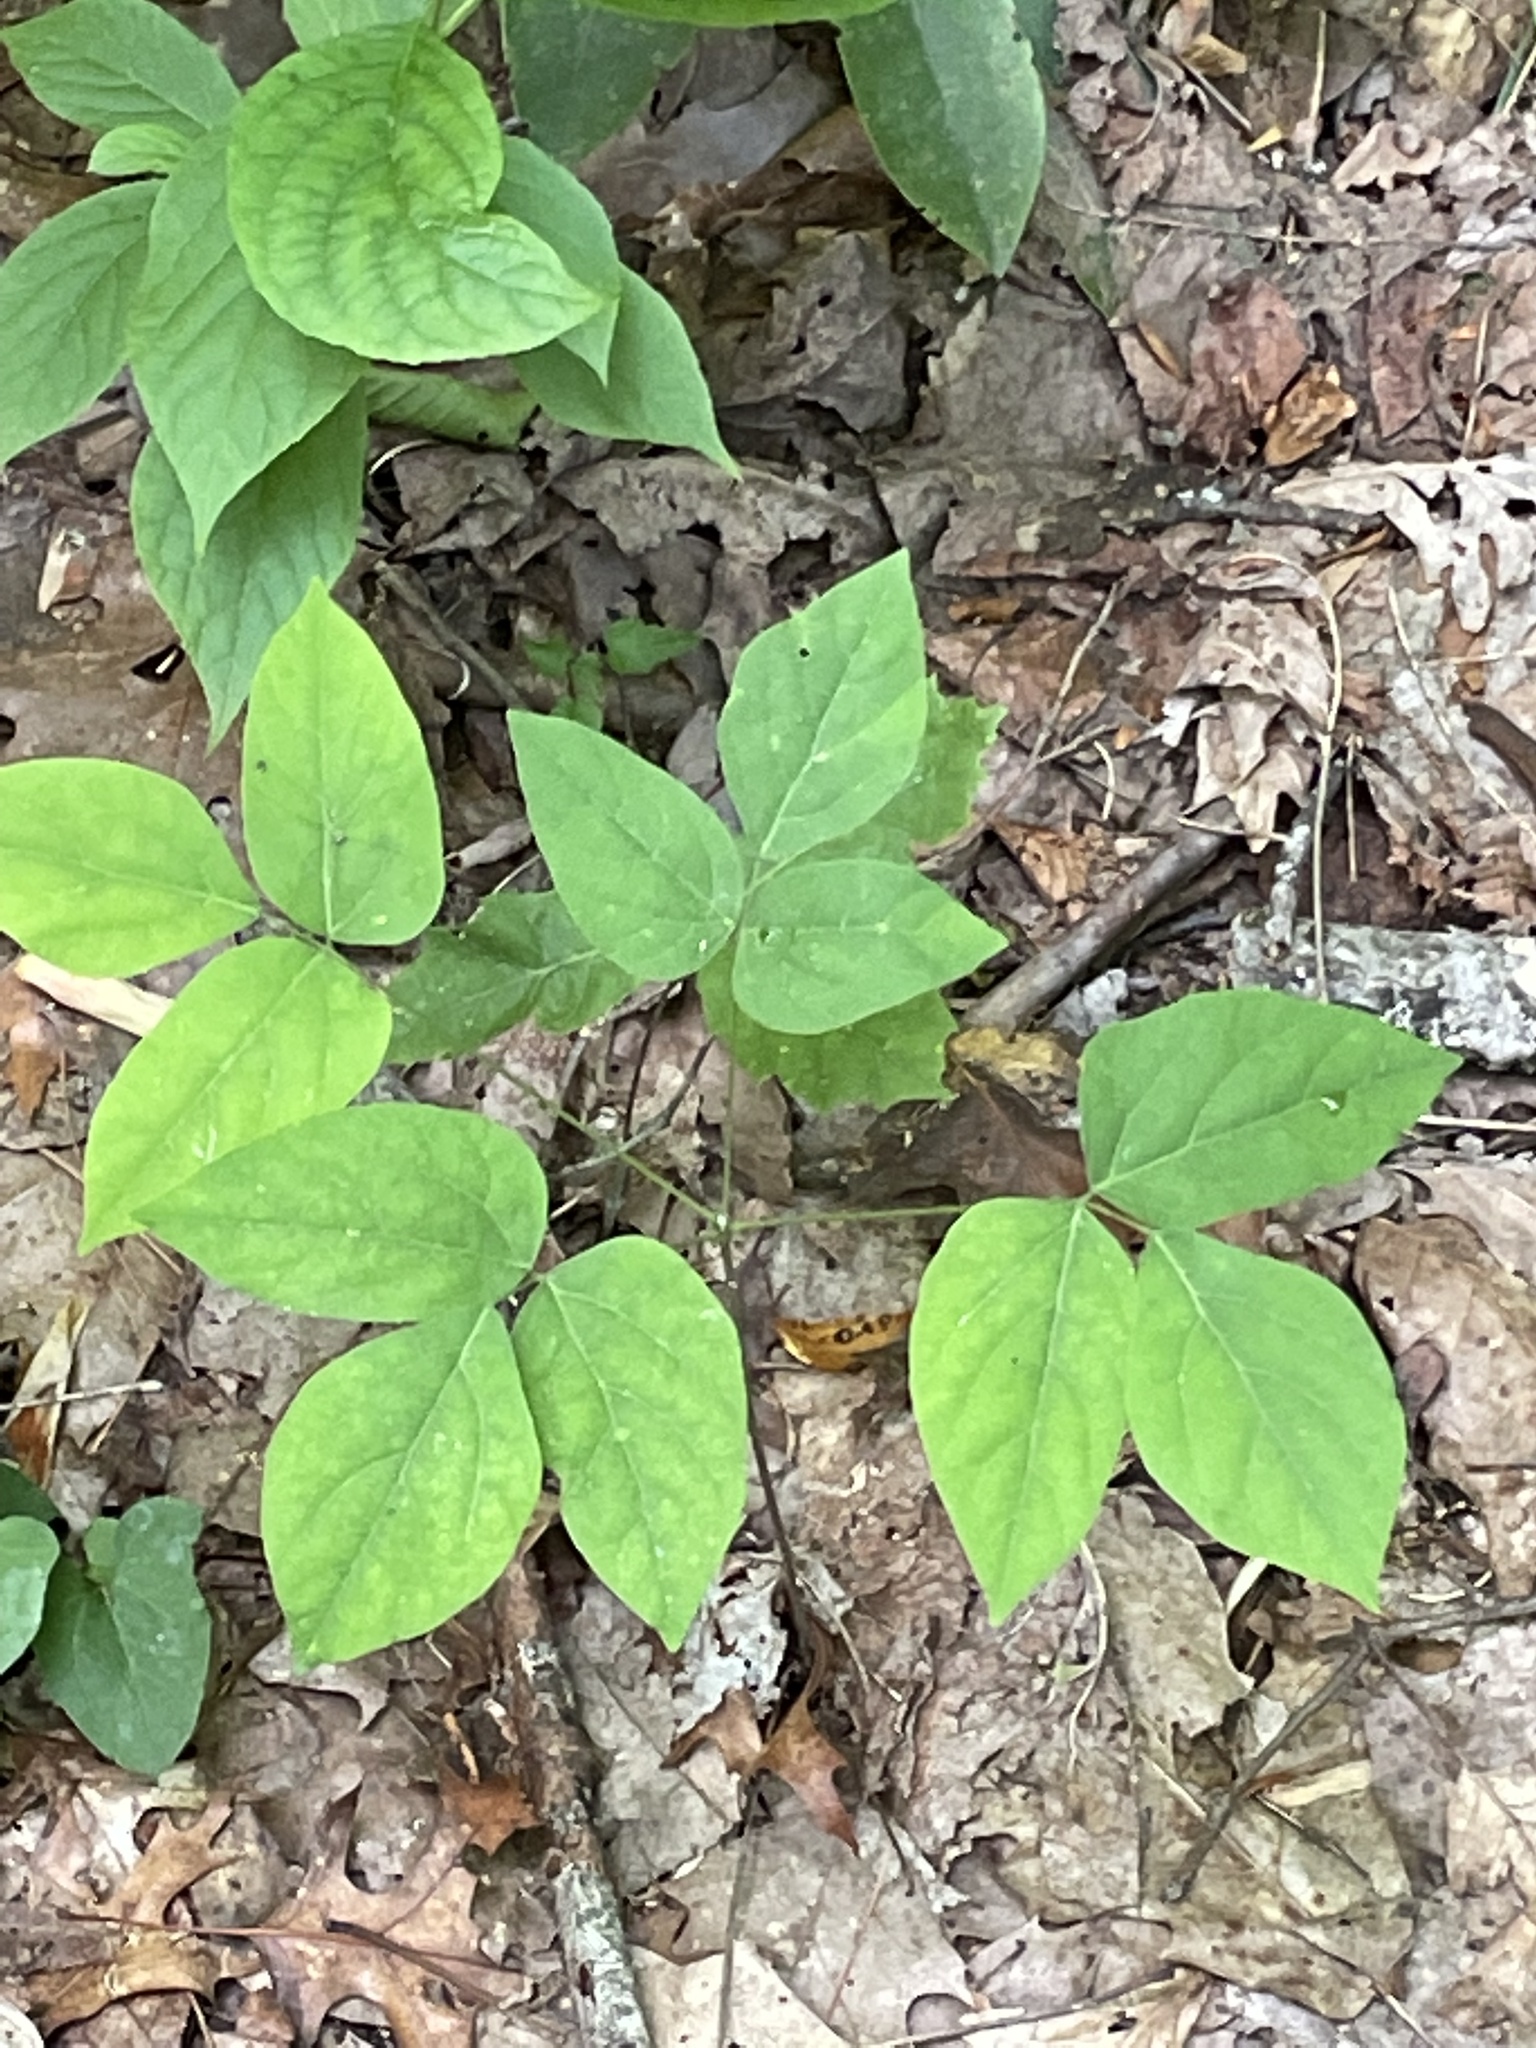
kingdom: Plantae
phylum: Tracheophyta
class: Magnoliopsida
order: Fabales
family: Fabaceae
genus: Hylodesmum
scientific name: Hylodesmum nudiflorum
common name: Bare-stemmed tick-trefoil
